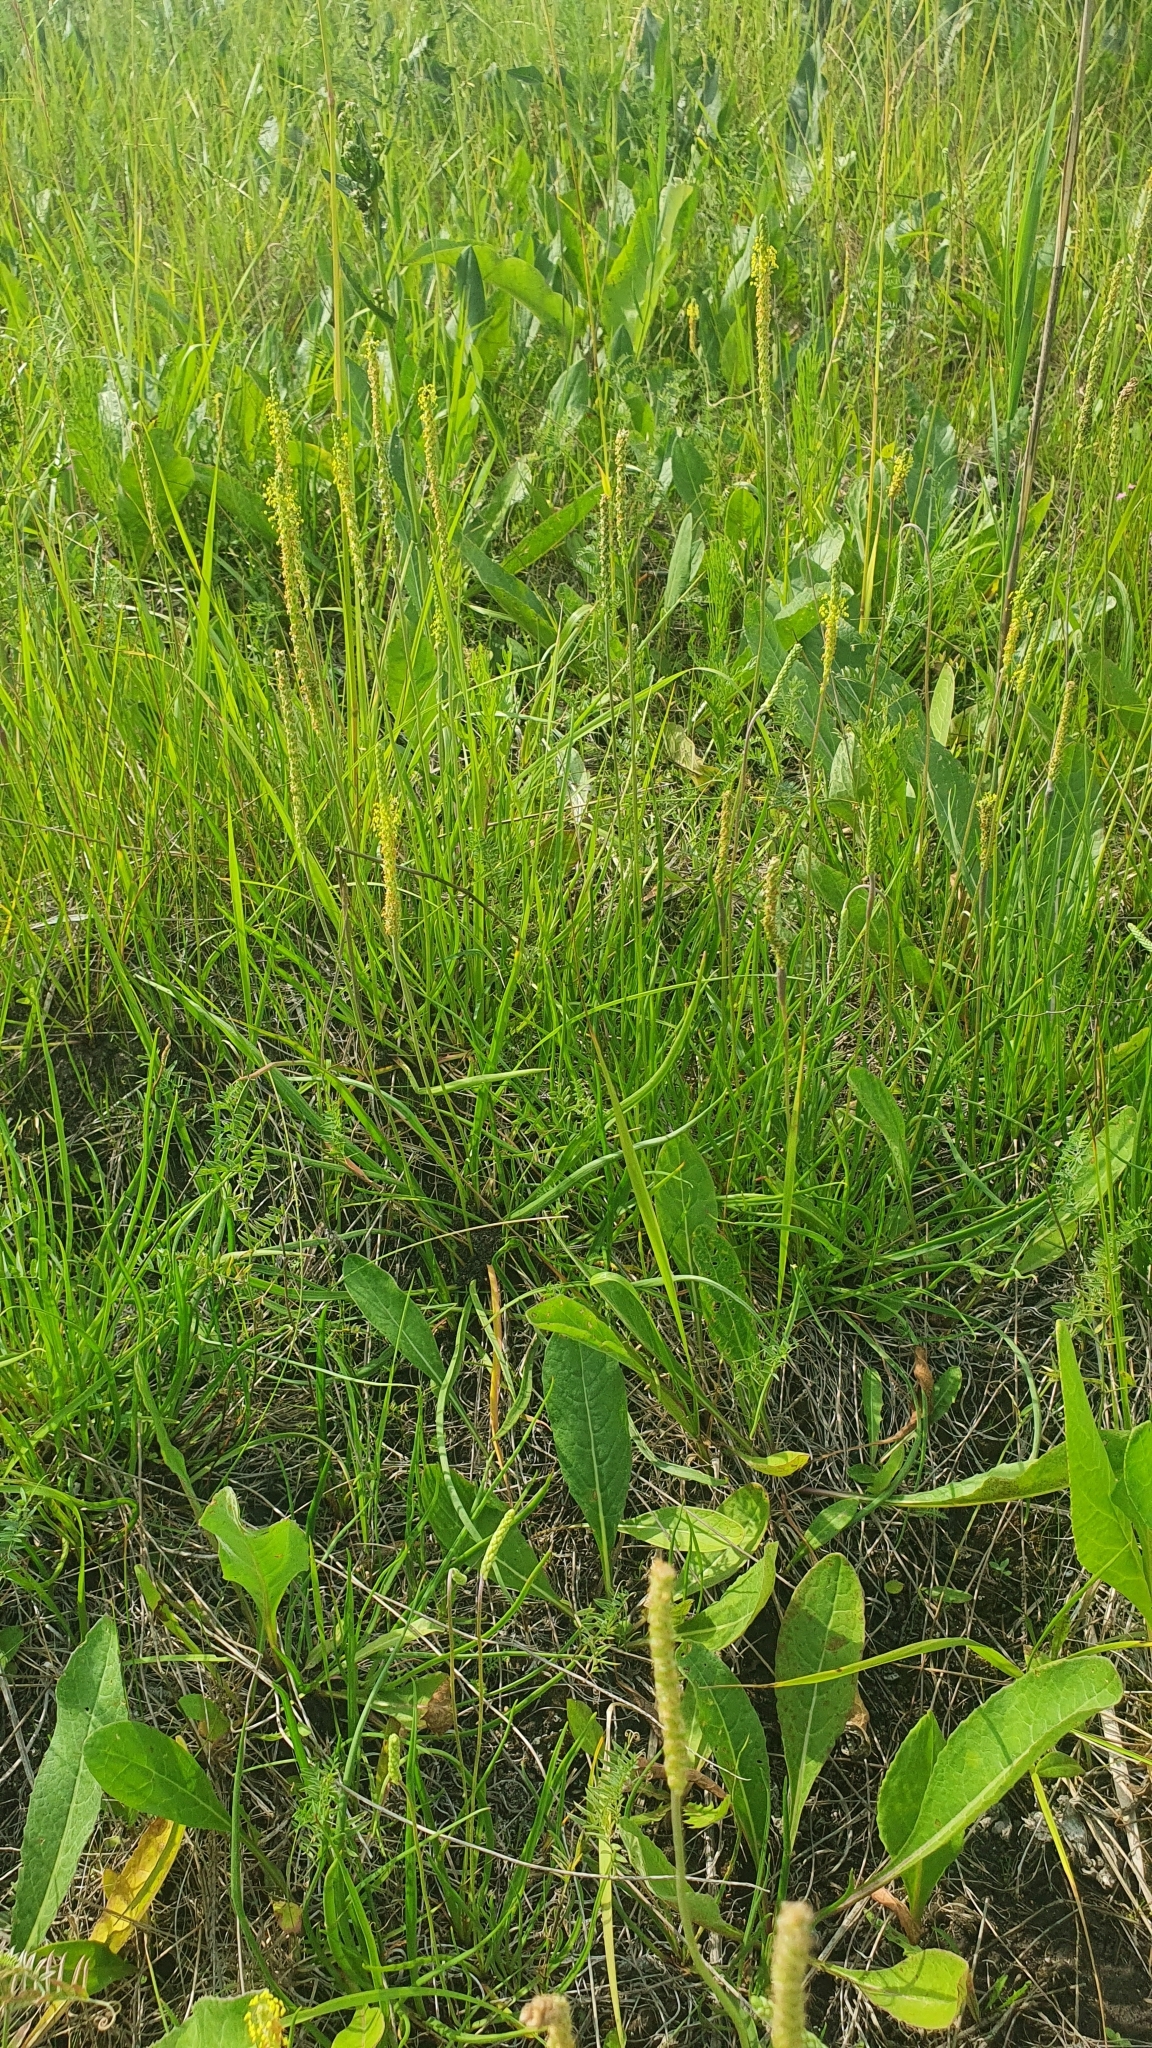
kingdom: Plantae
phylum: Tracheophyta
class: Magnoliopsida
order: Lamiales
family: Plantaginaceae
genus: Plantago
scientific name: Plantago salsa
